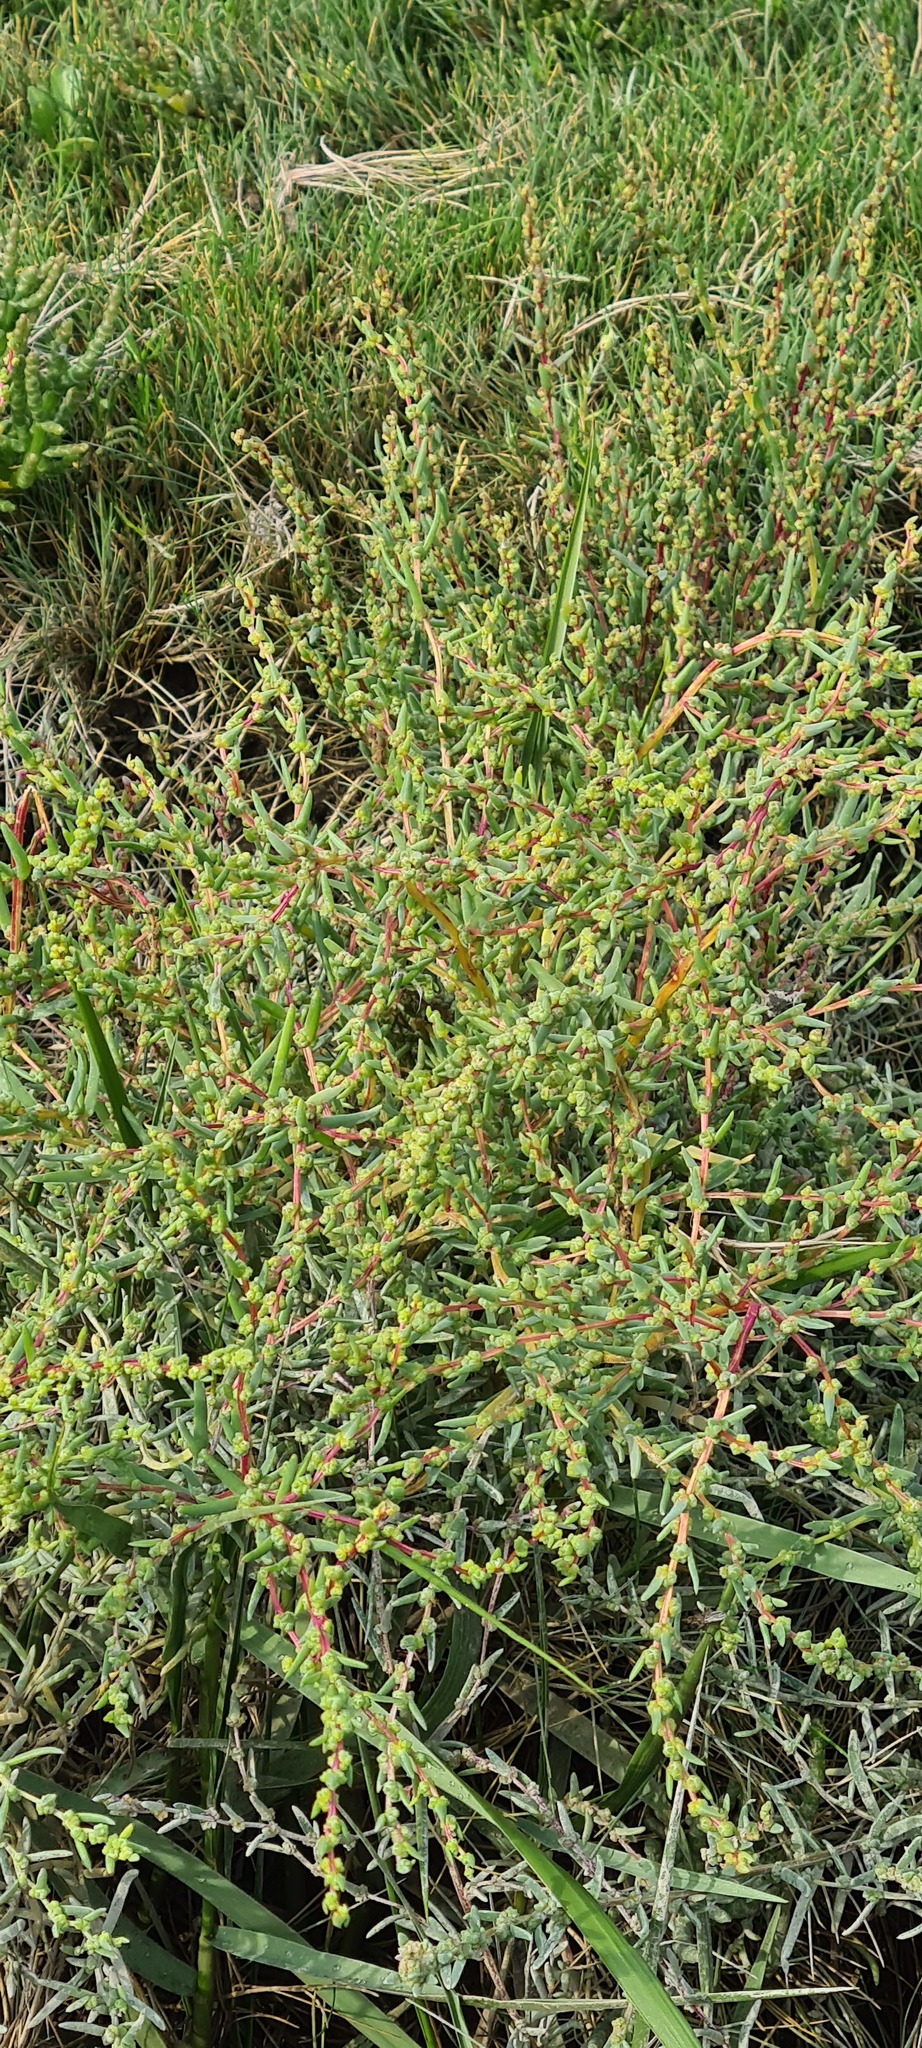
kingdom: Plantae
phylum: Tracheophyta
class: Magnoliopsida
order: Caryophyllales
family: Amaranthaceae
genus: Suaeda
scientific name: Suaeda maritima
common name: Annual sea-blite
